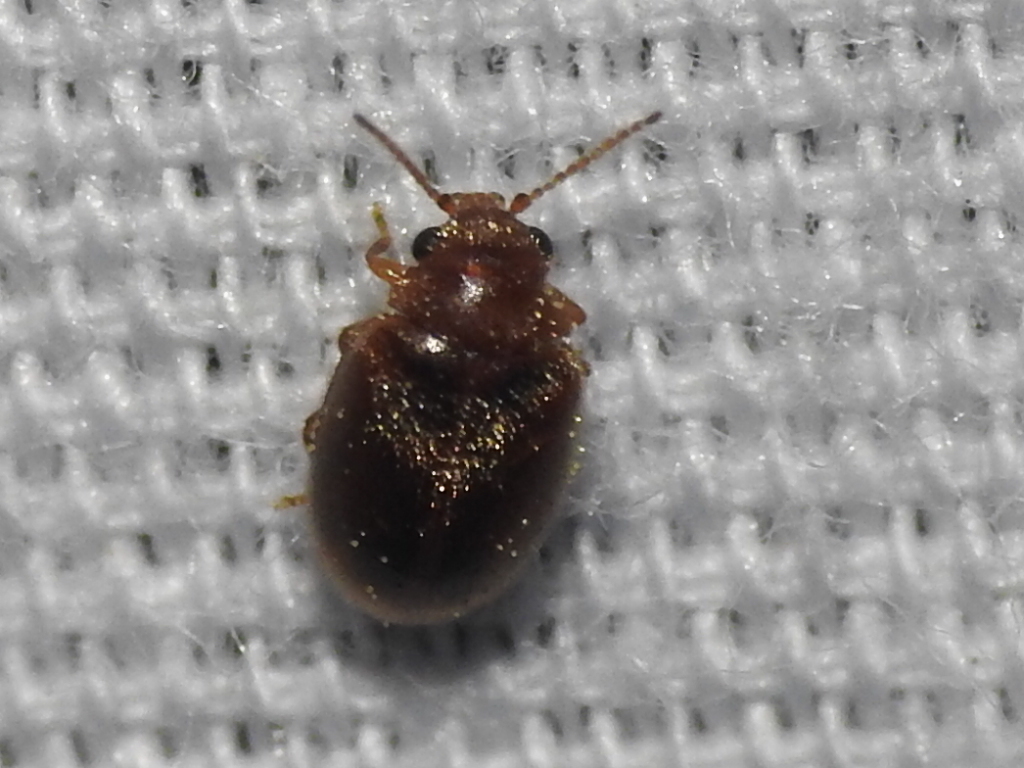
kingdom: Animalia
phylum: Arthropoda
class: Insecta
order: Coleoptera
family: Scirtidae
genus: Contacyphon
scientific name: Contacyphon
